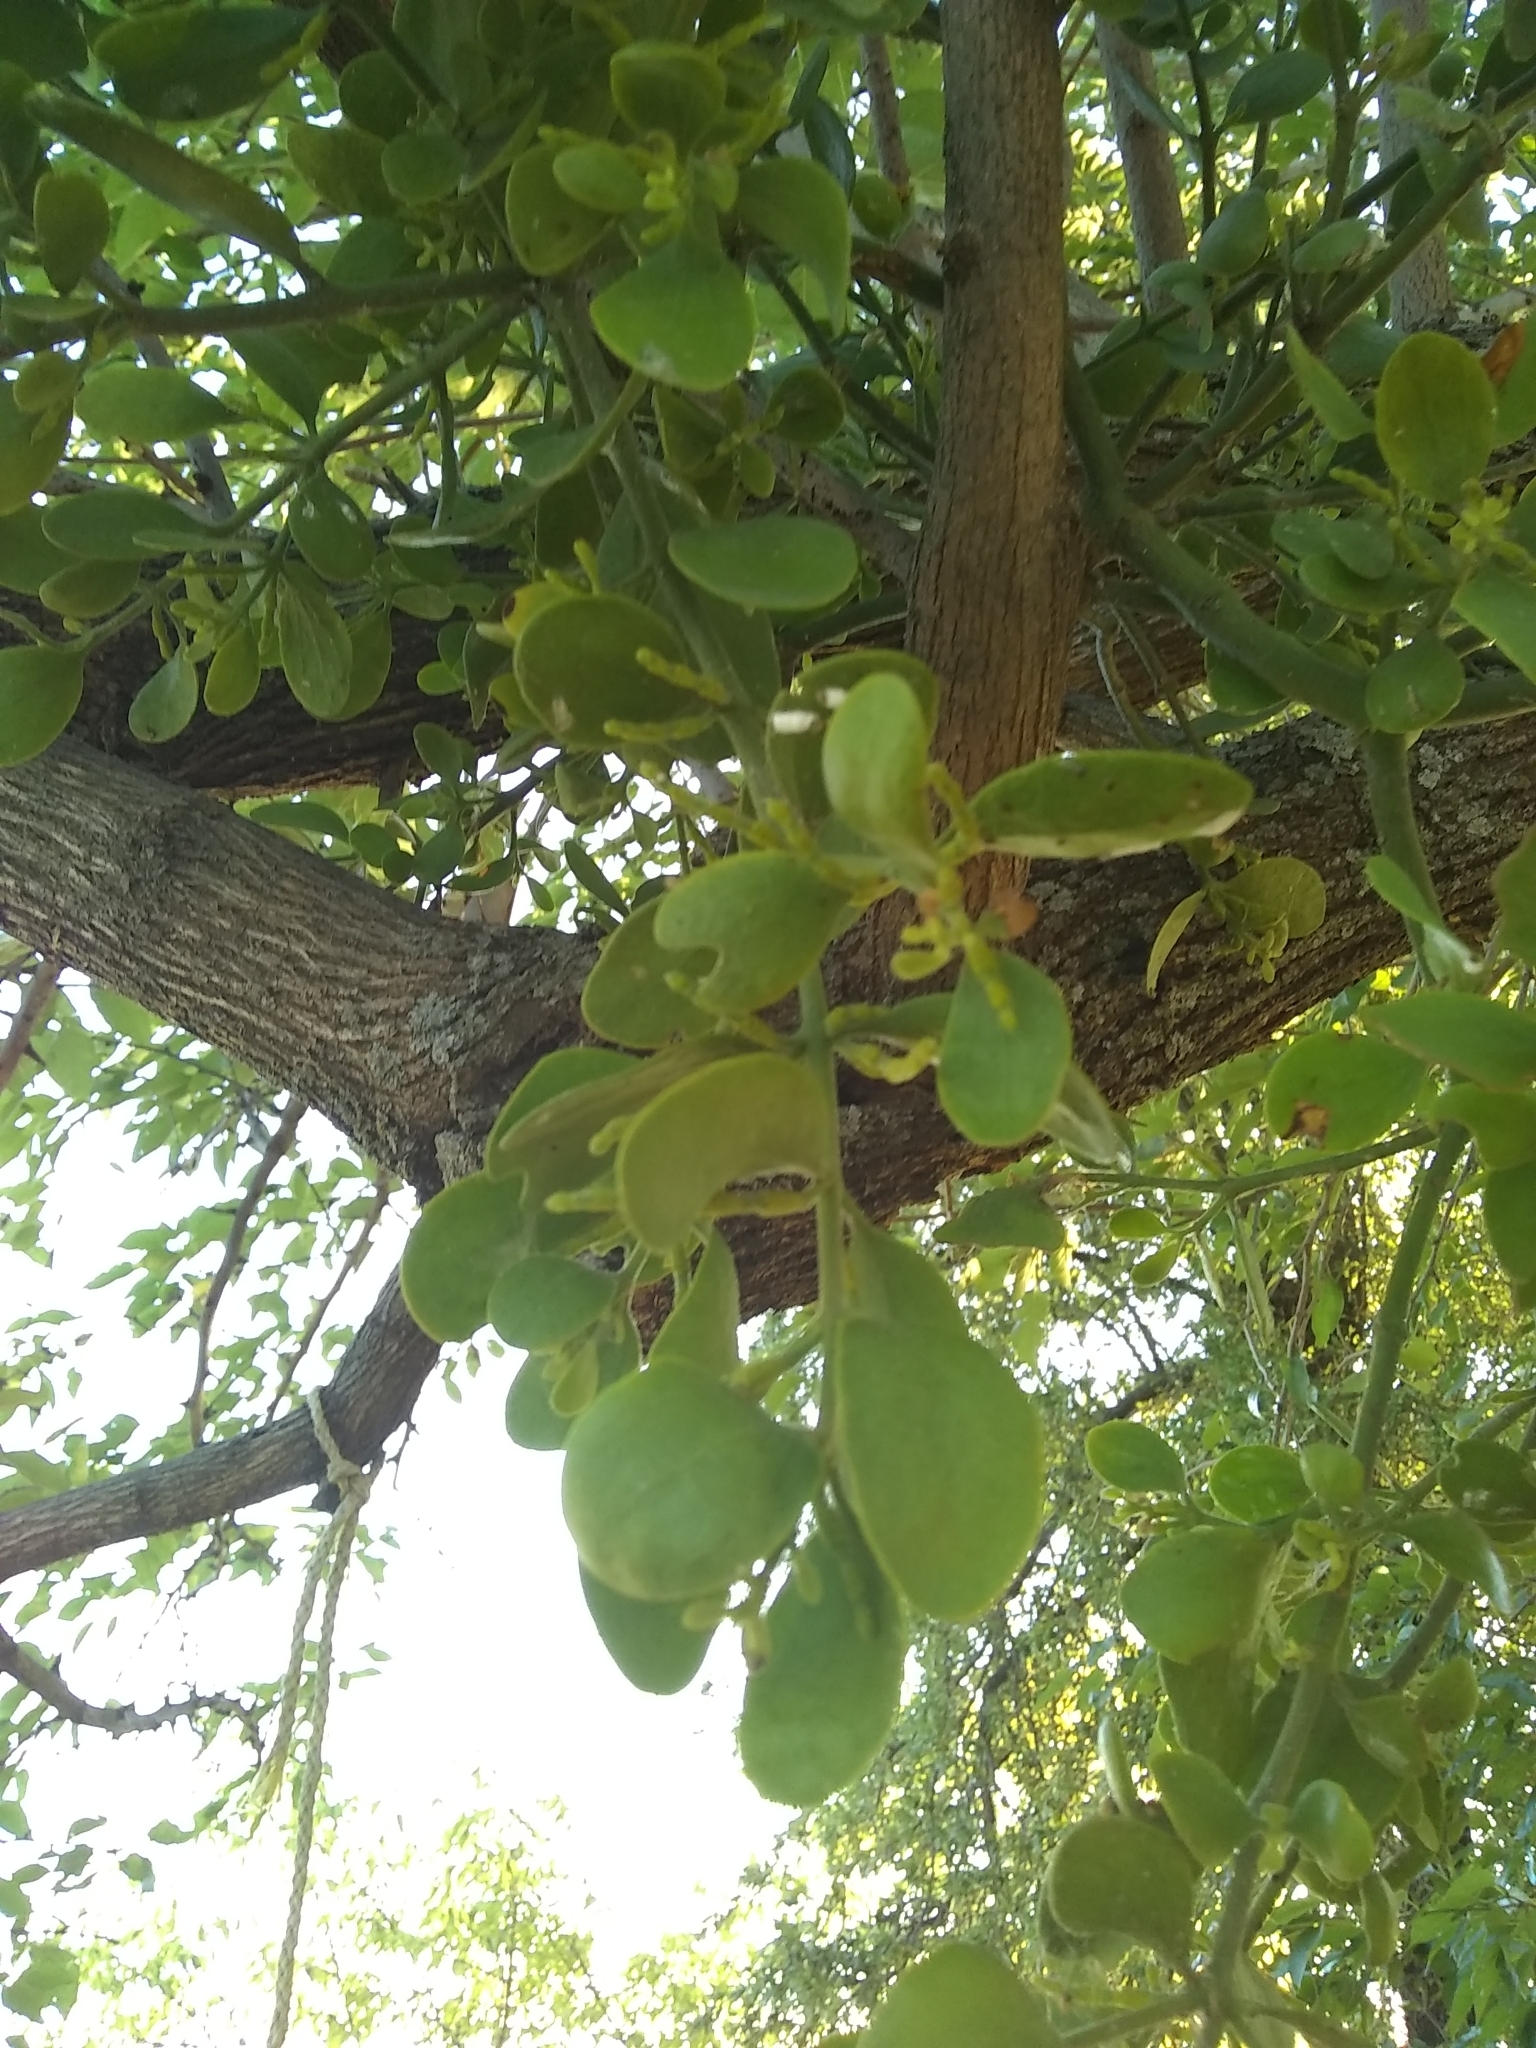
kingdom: Plantae
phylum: Tracheophyta
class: Magnoliopsida
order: Santalales
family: Viscaceae
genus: Phoradendron
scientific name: Phoradendron leucarpum
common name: Pacific mistletoe
